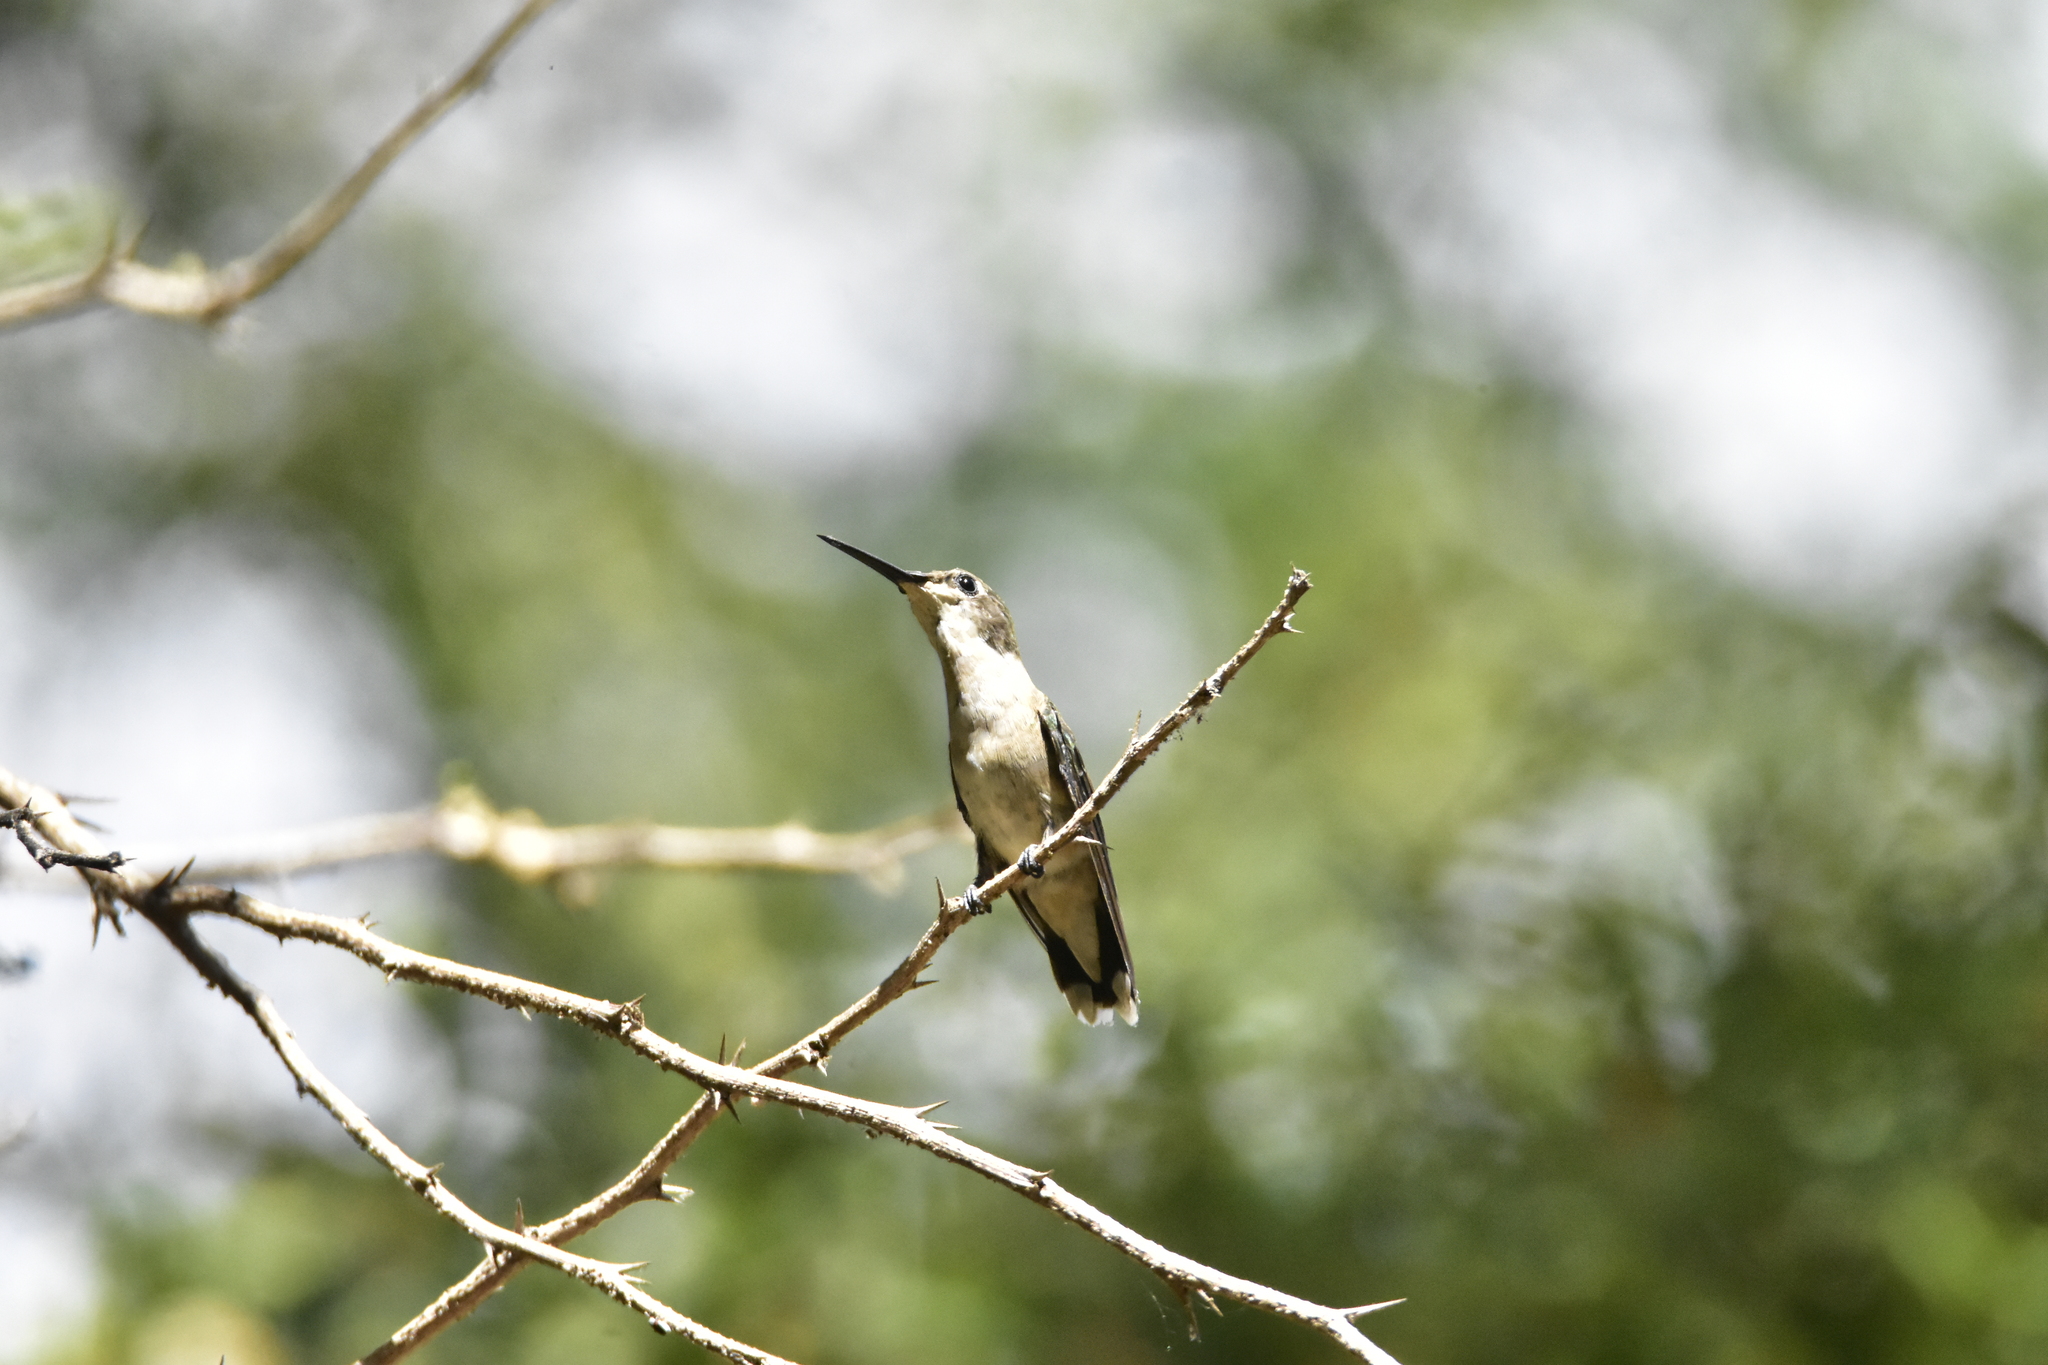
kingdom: Animalia
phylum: Chordata
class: Aves
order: Apodiformes
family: Trochilidae
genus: Archilochus
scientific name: Archilochus alexandri
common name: Black-chinned hummingbird
